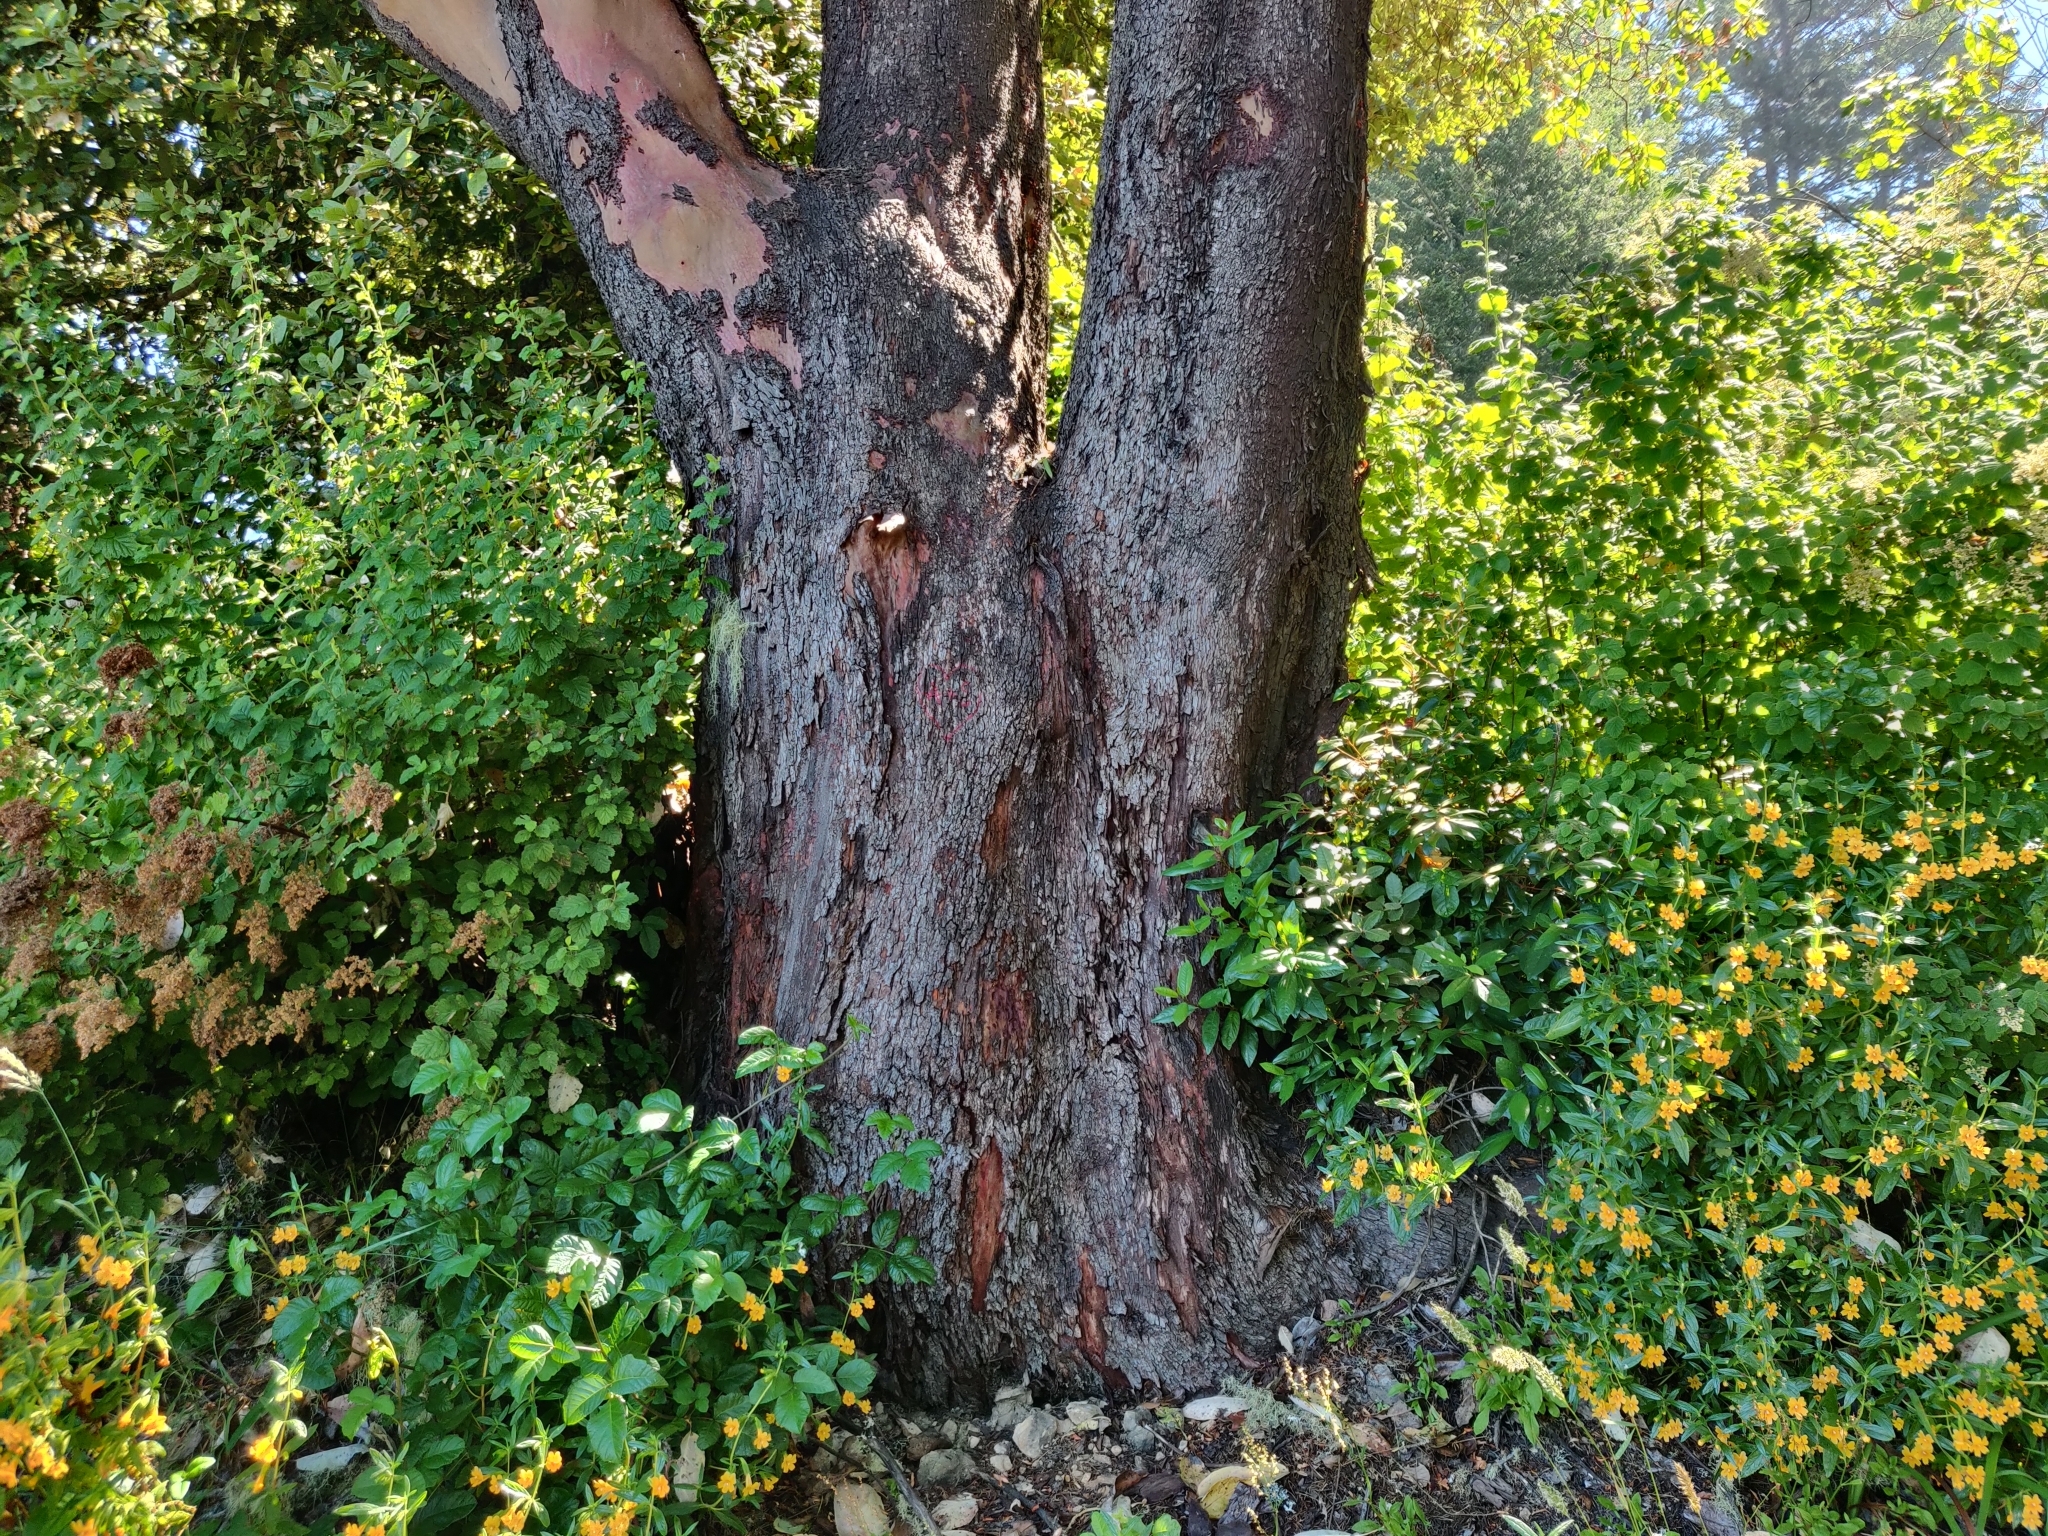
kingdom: Plantae
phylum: Tracheophyta
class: Magnoliopsida
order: Ericales
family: Ericaceae
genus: Arbutus
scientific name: Arbutus menziesii
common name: Pacific madrone
